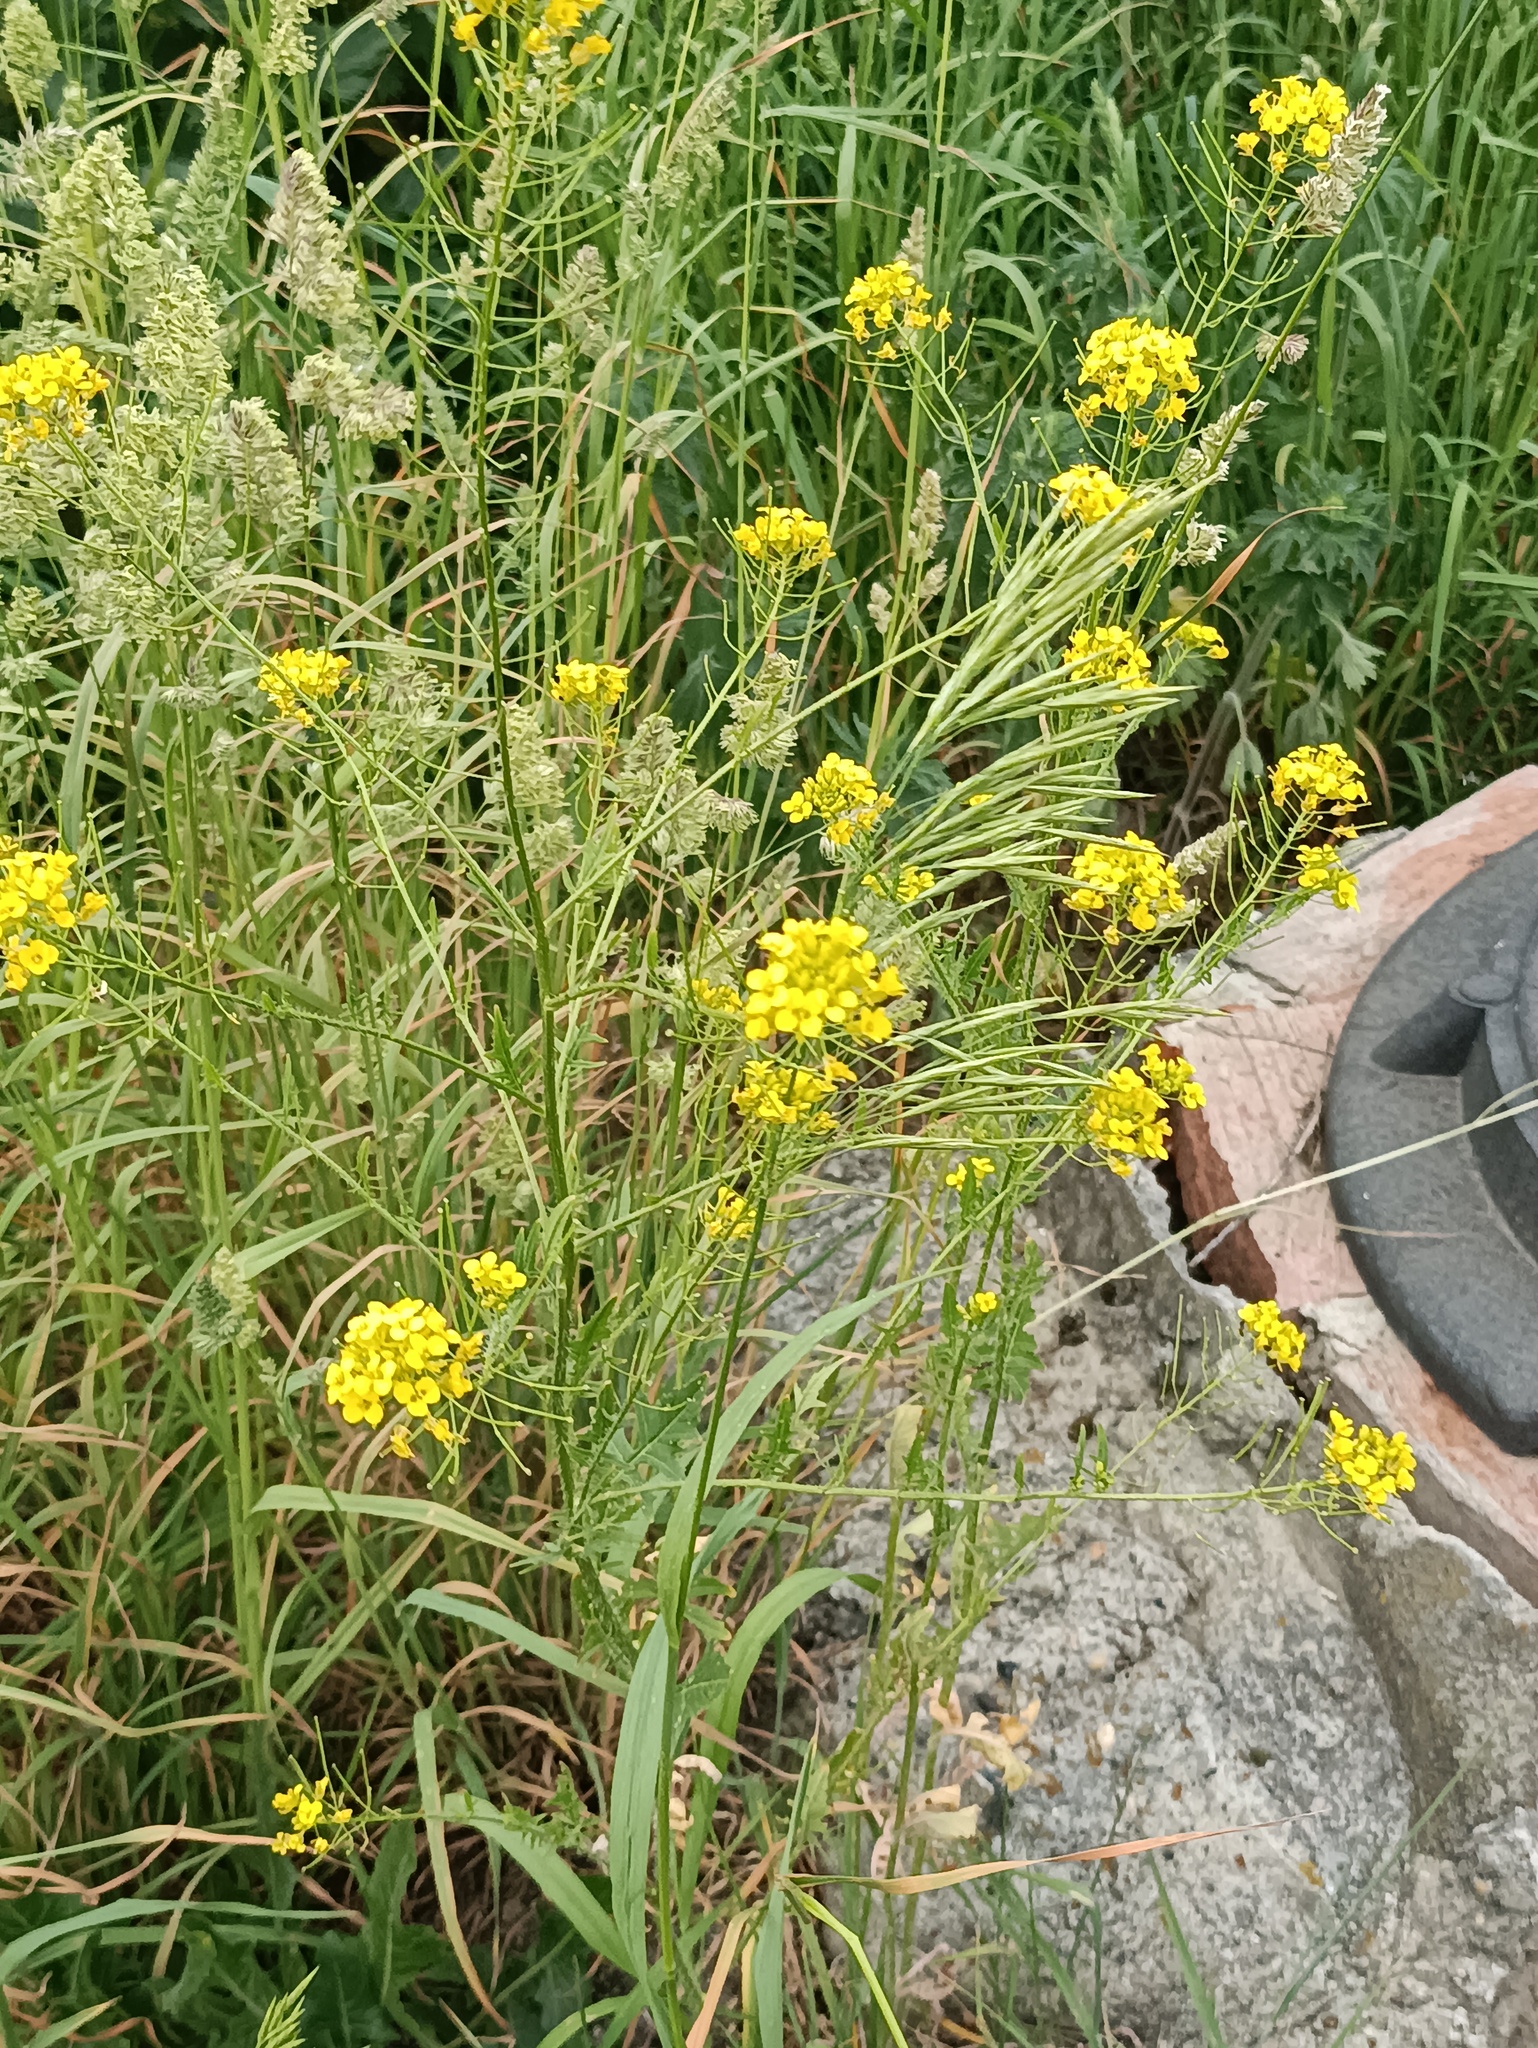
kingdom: Plantae
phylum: Tracheophyta
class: Magnoliopsida
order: Brassicales
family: Brassicaceae
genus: Sisymbrium
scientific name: Sisymbrium loeselii
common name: False london-rocket
